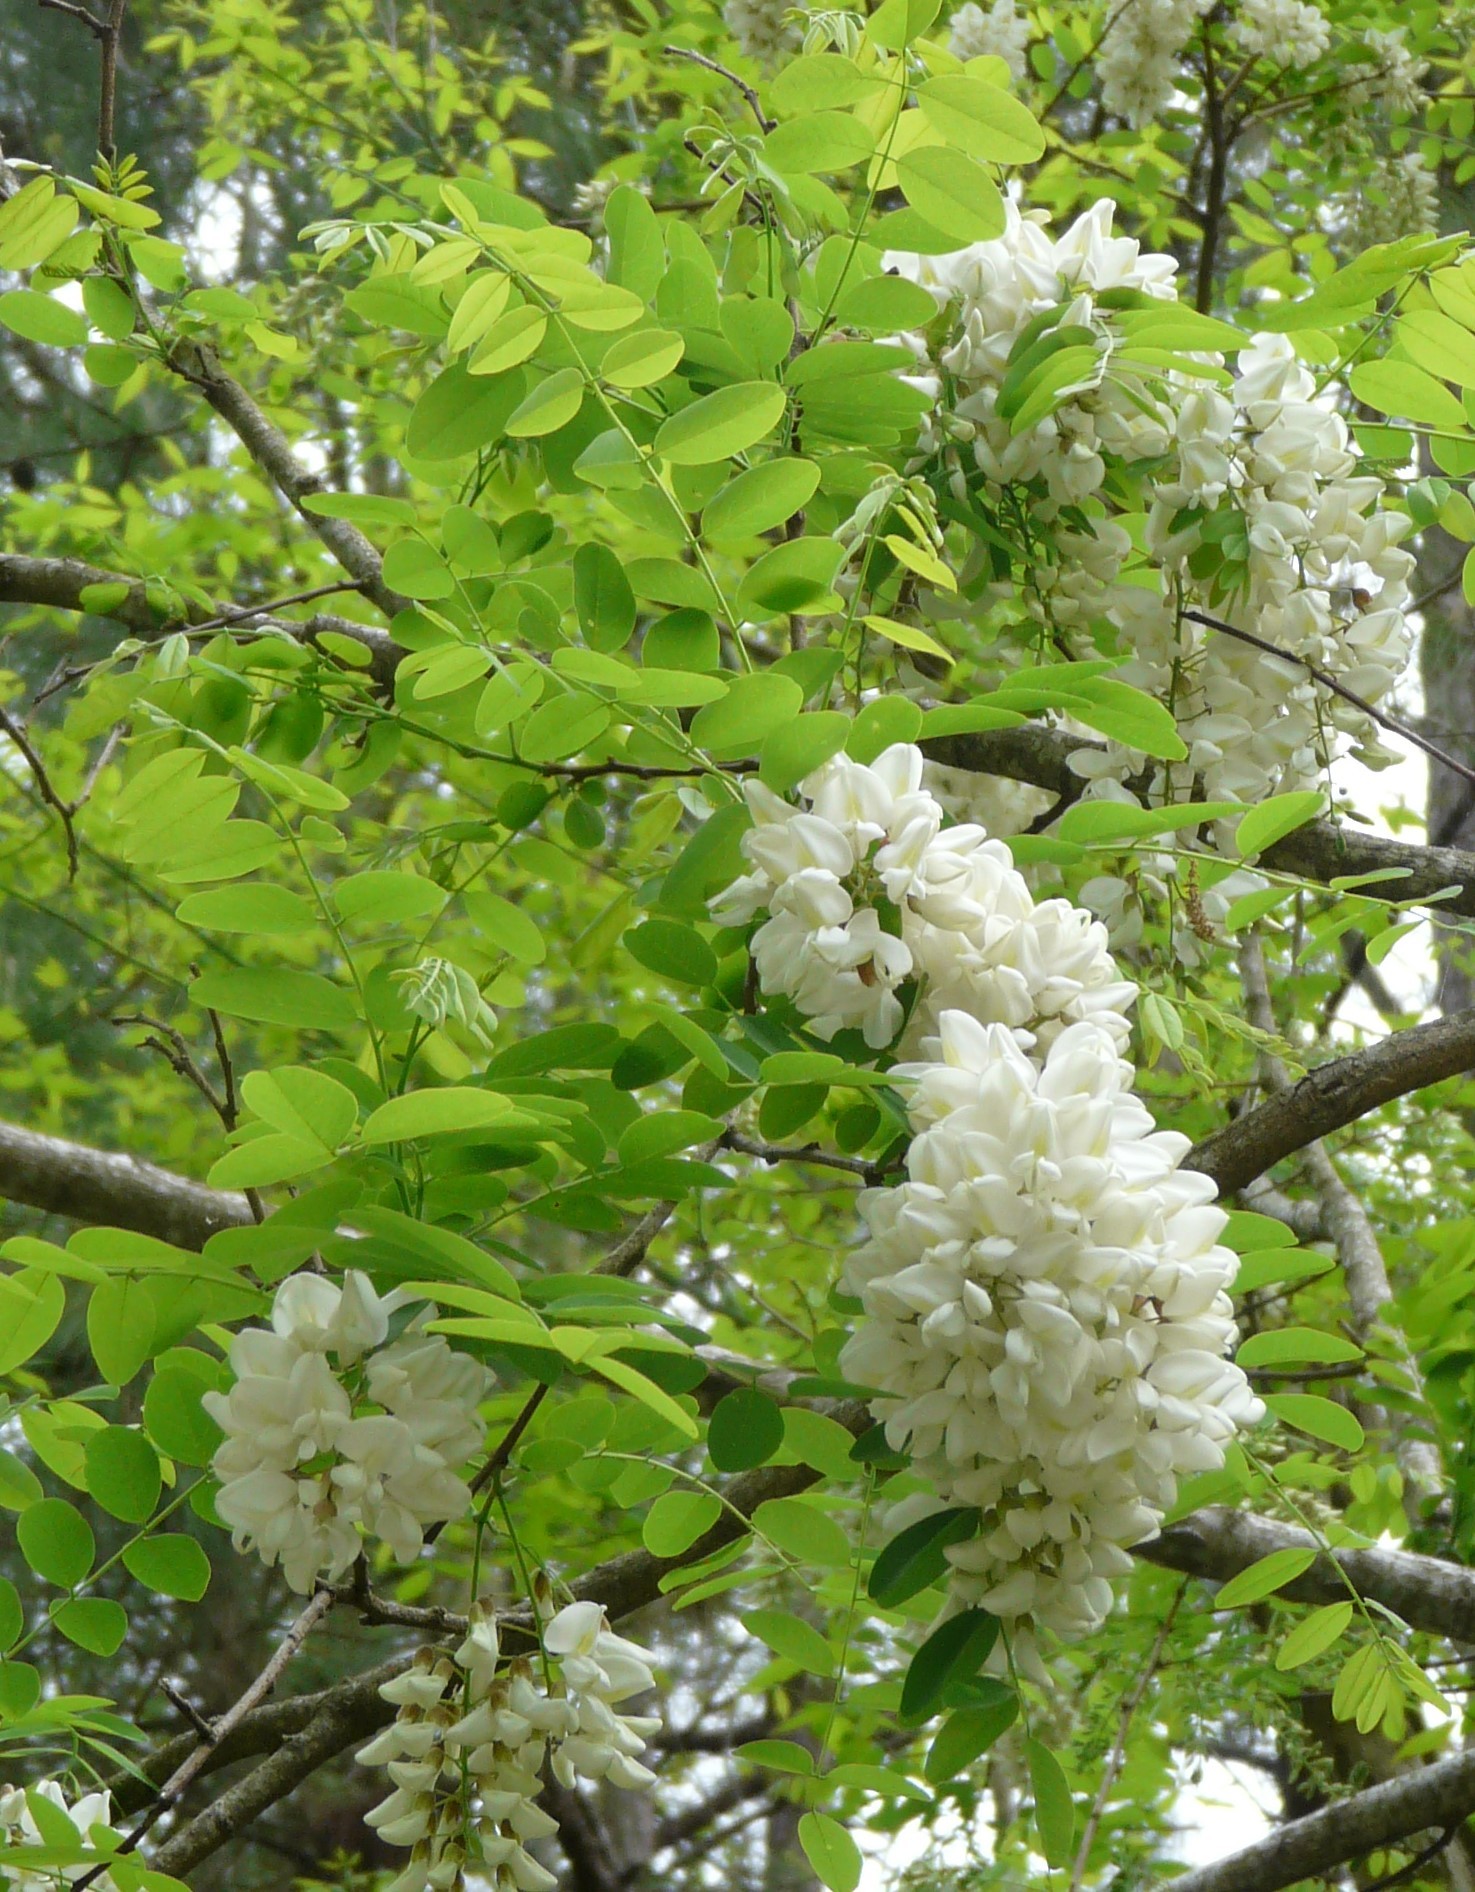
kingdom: Plantae
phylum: Tracheophyta
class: Magnoliopsida
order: Fabales
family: Fabaceae
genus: Robinia
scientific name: Robinia pseudoacacia
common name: Black locust
